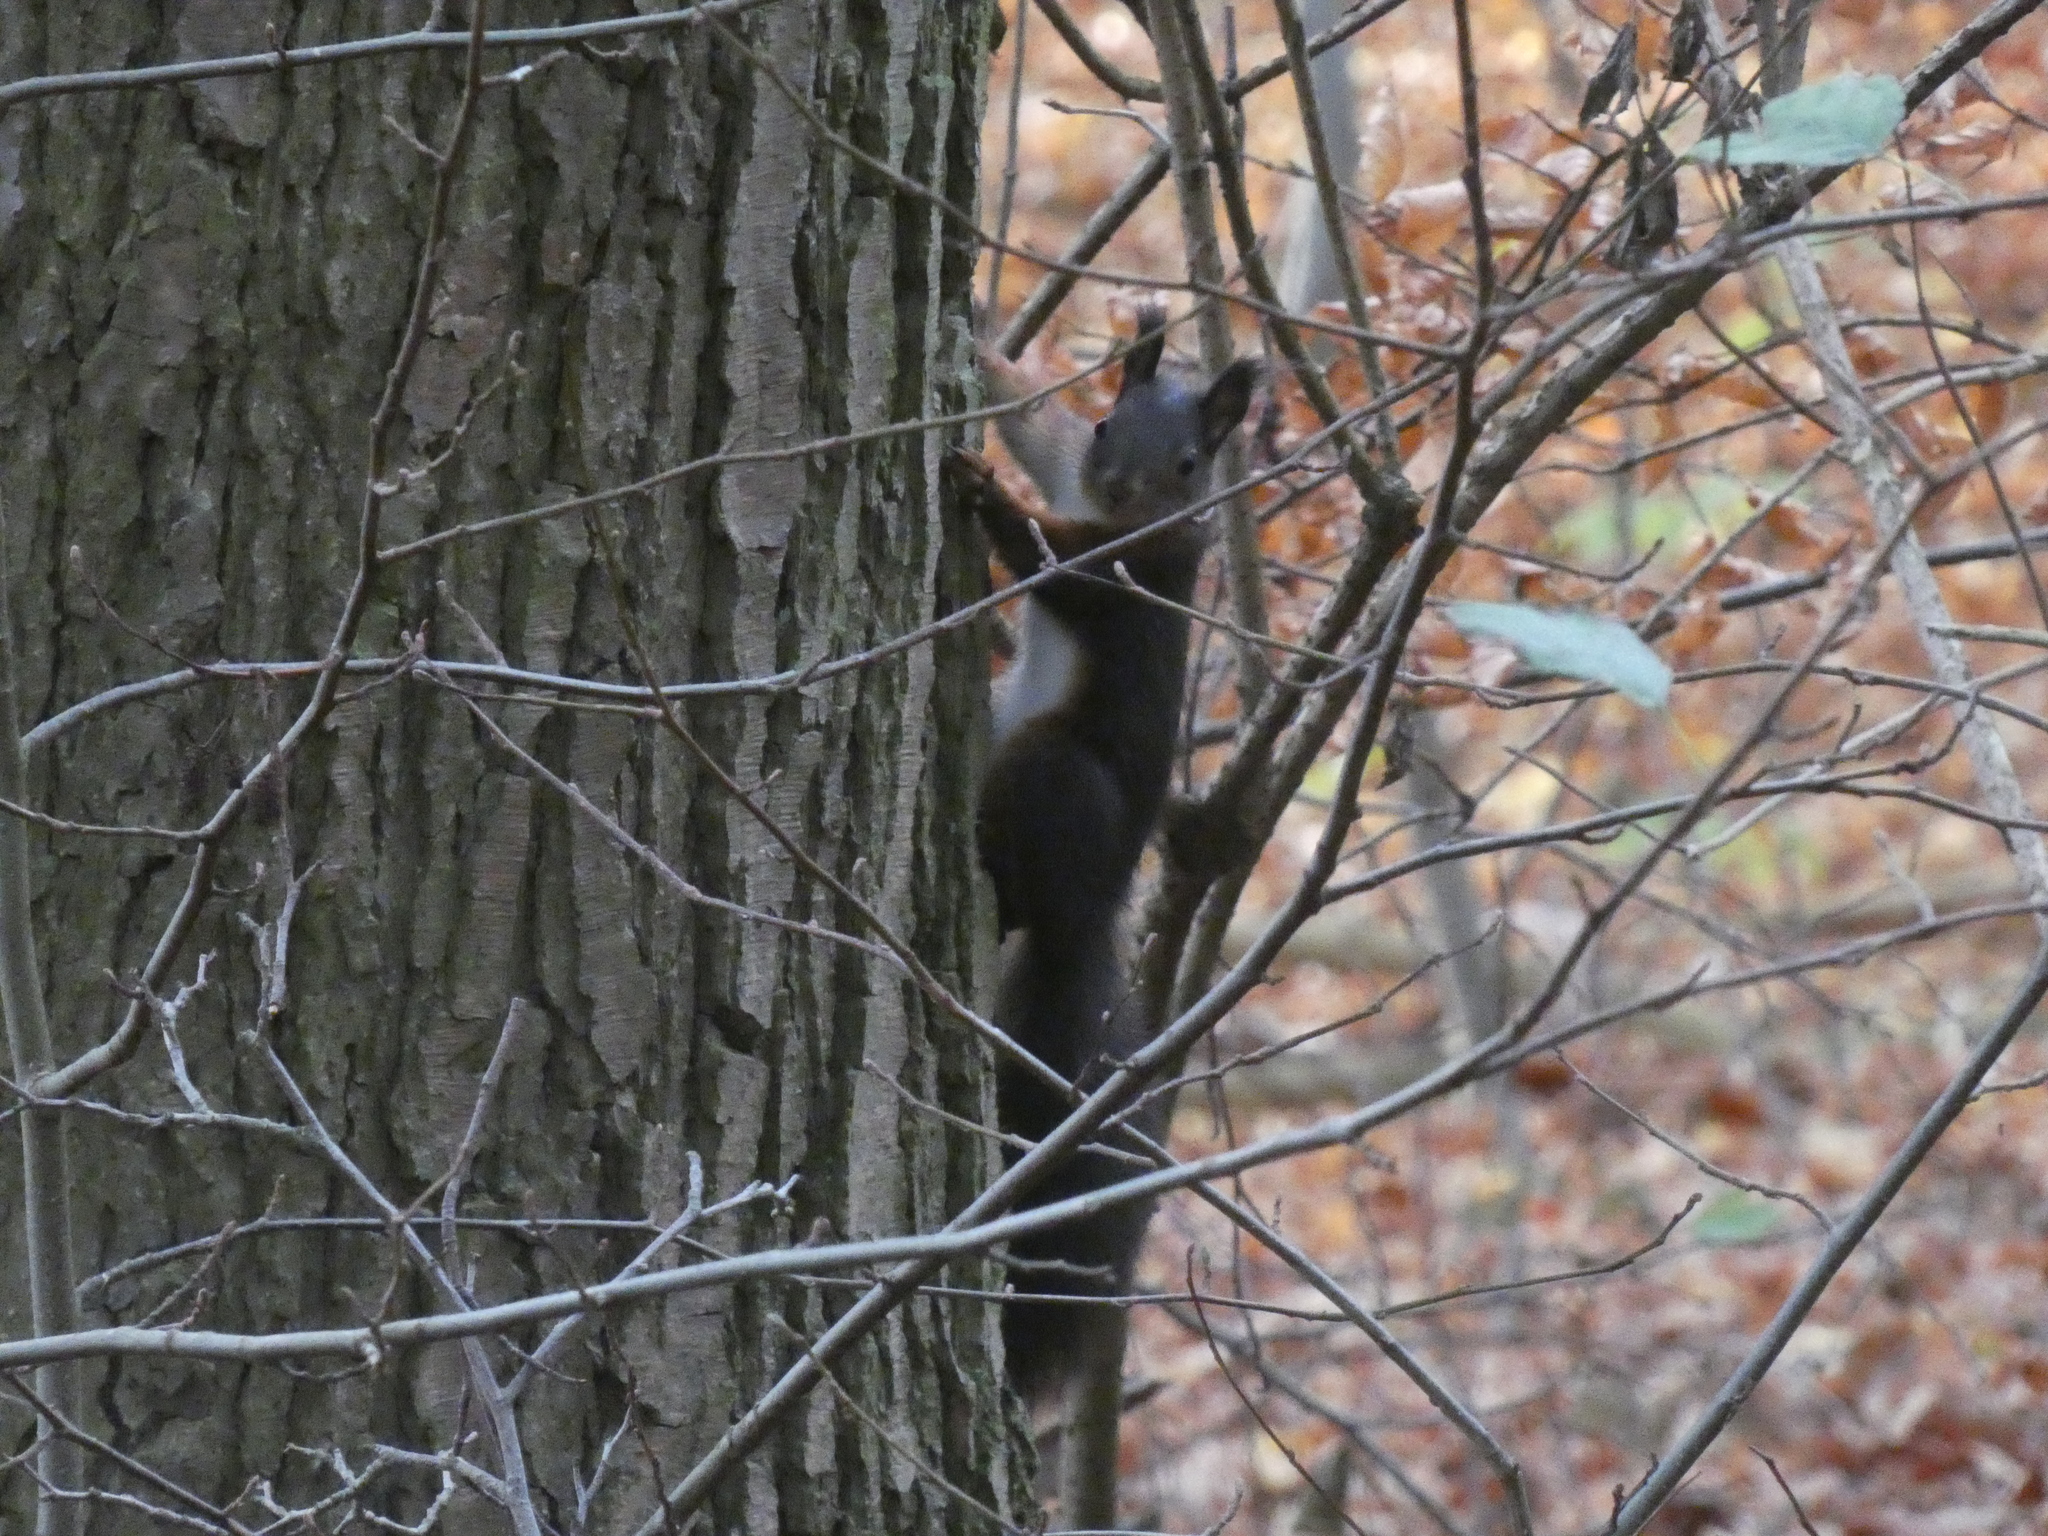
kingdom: Animalia
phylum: Chordata
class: Mammalia
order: Rodentia
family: Sciuridae
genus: Sciurus
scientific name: Sciurus vulgaris
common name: Eurasian red squirrel
